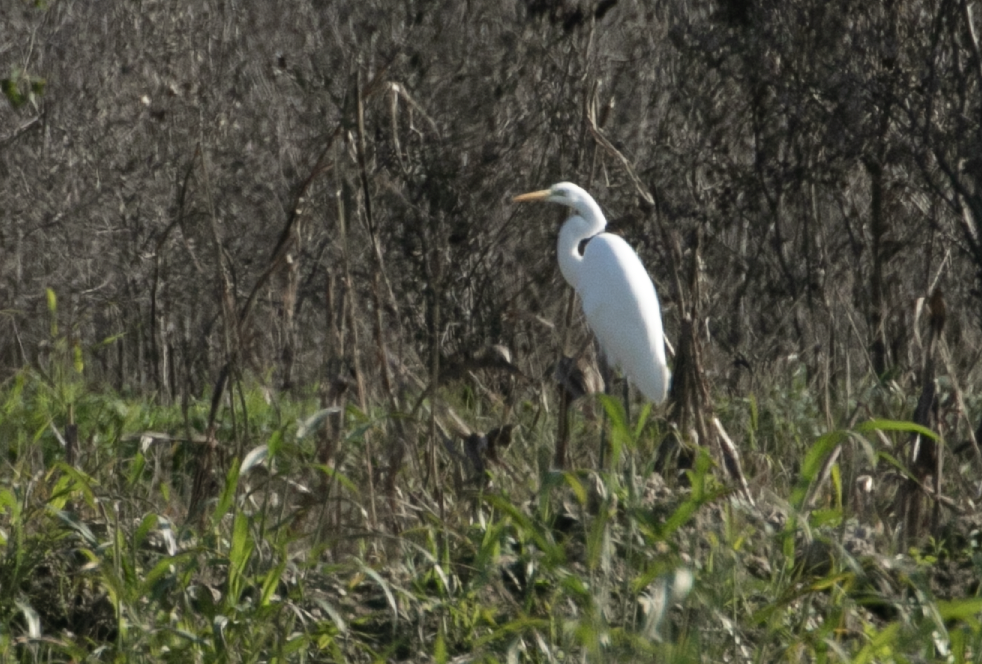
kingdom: Animalia
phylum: Chordata
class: Aves
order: Pelecaniformes
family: Ardeidae
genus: Ardea
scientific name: Ardea alba
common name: Great egret
